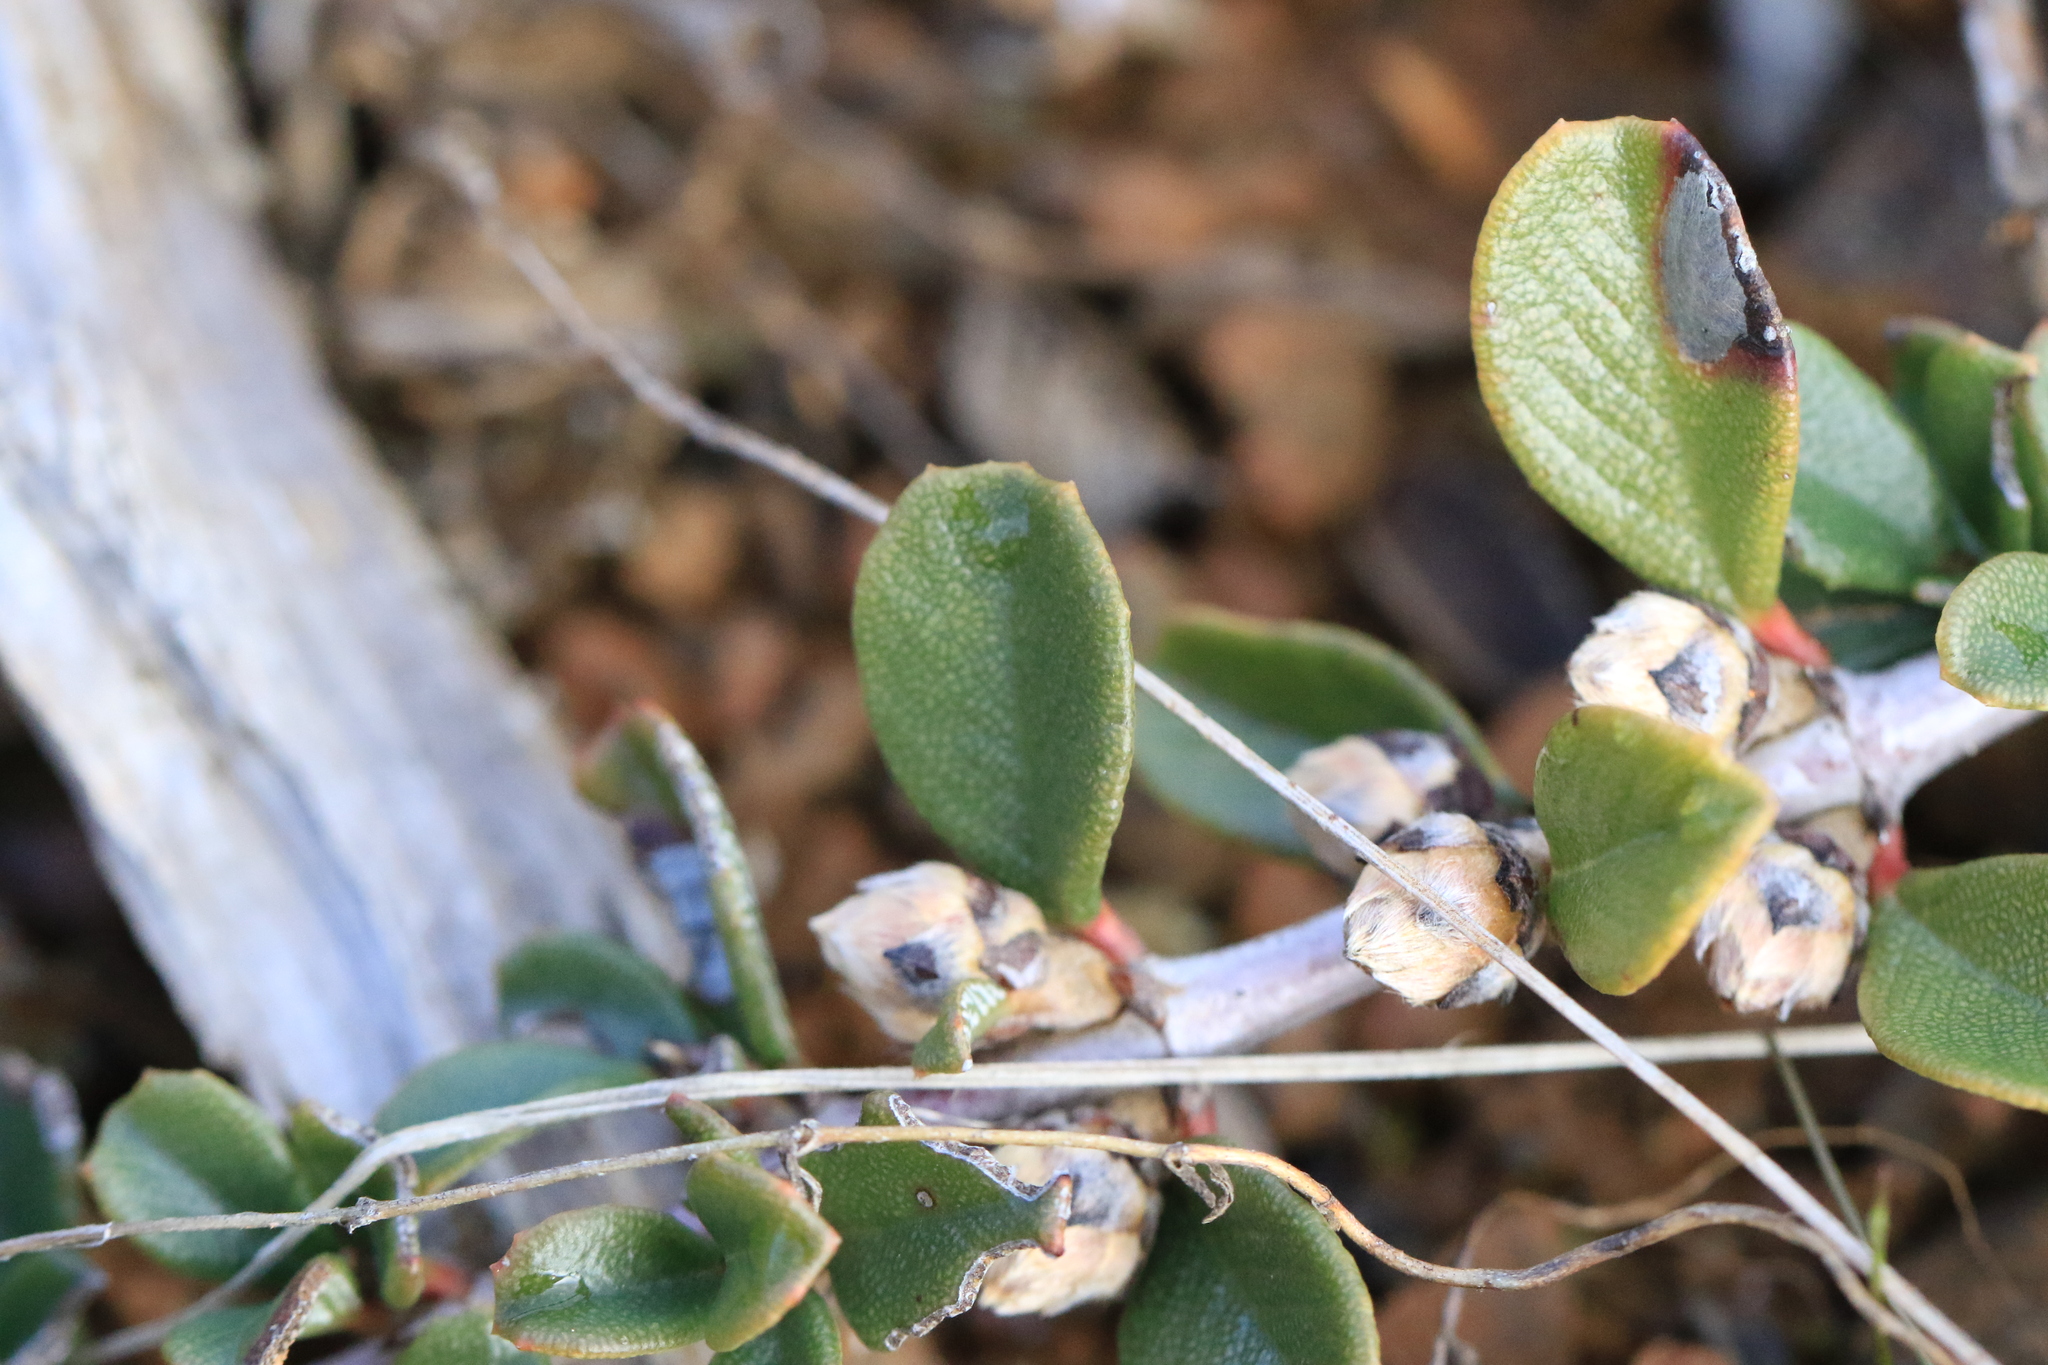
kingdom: Plantae
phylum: Tracheophyta
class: Magnoliopsida
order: Rosales
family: Rhamnaceae
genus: Ceanothus
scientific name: Ceanothus pumilus
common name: Siskiyou-mat
